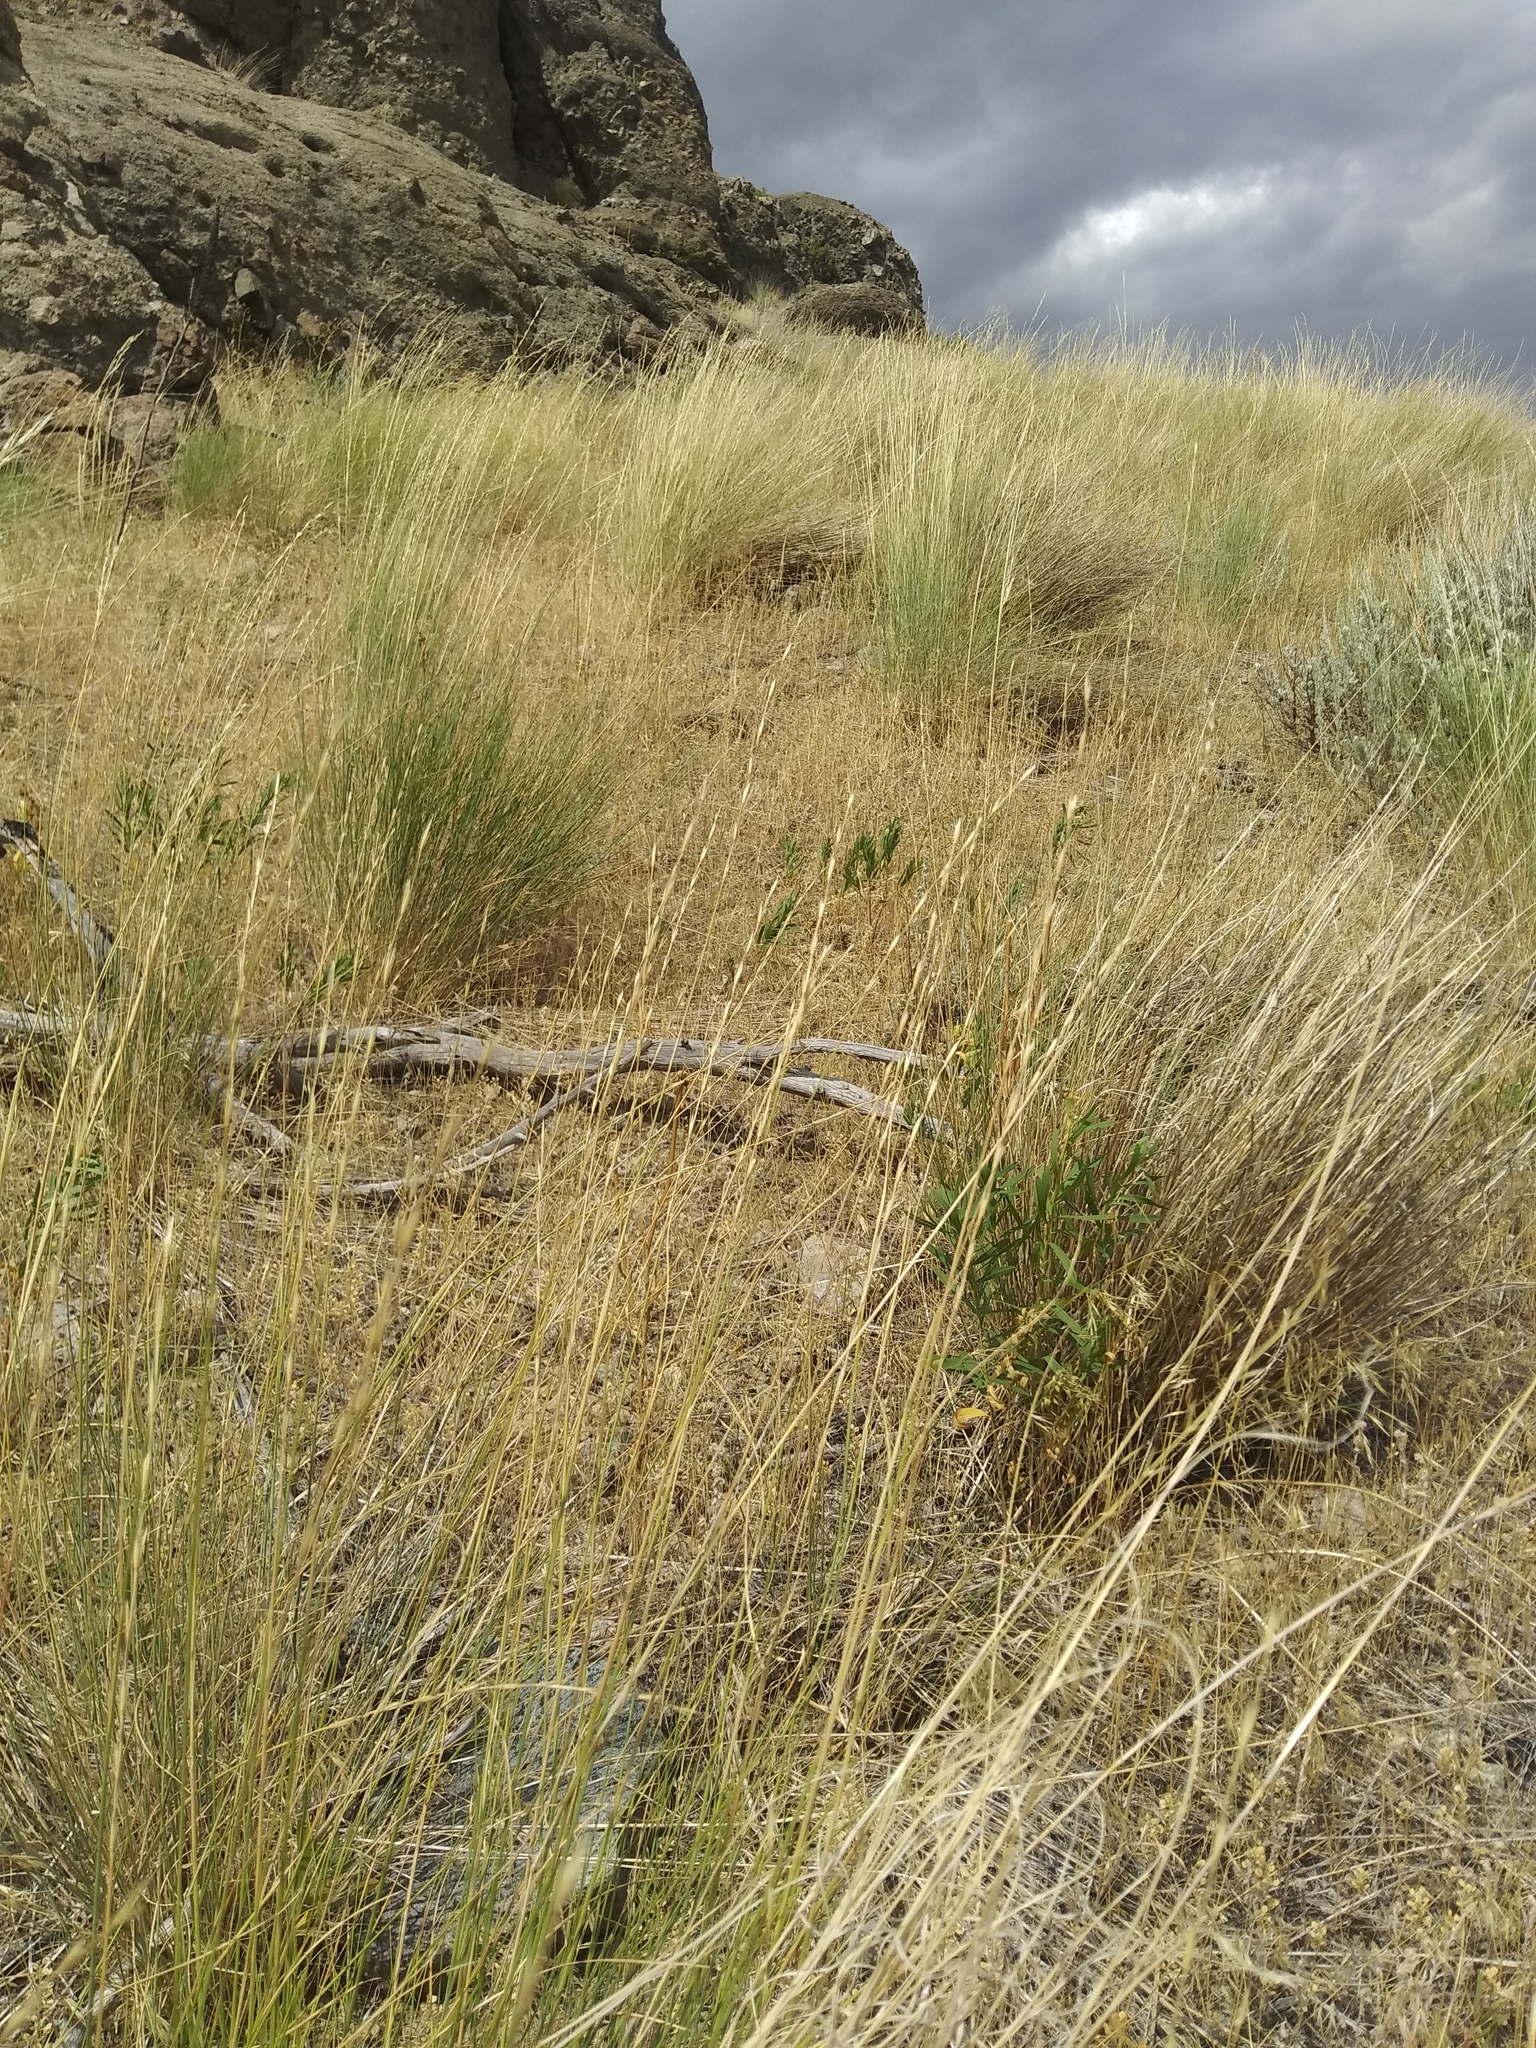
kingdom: Plantae
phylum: Tracheophyta
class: Liliopsida
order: Poales
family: Poaceae
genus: Pseudoroegneria
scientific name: Pseudoroegneria spicata
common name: Bluebunch wheatgrass
